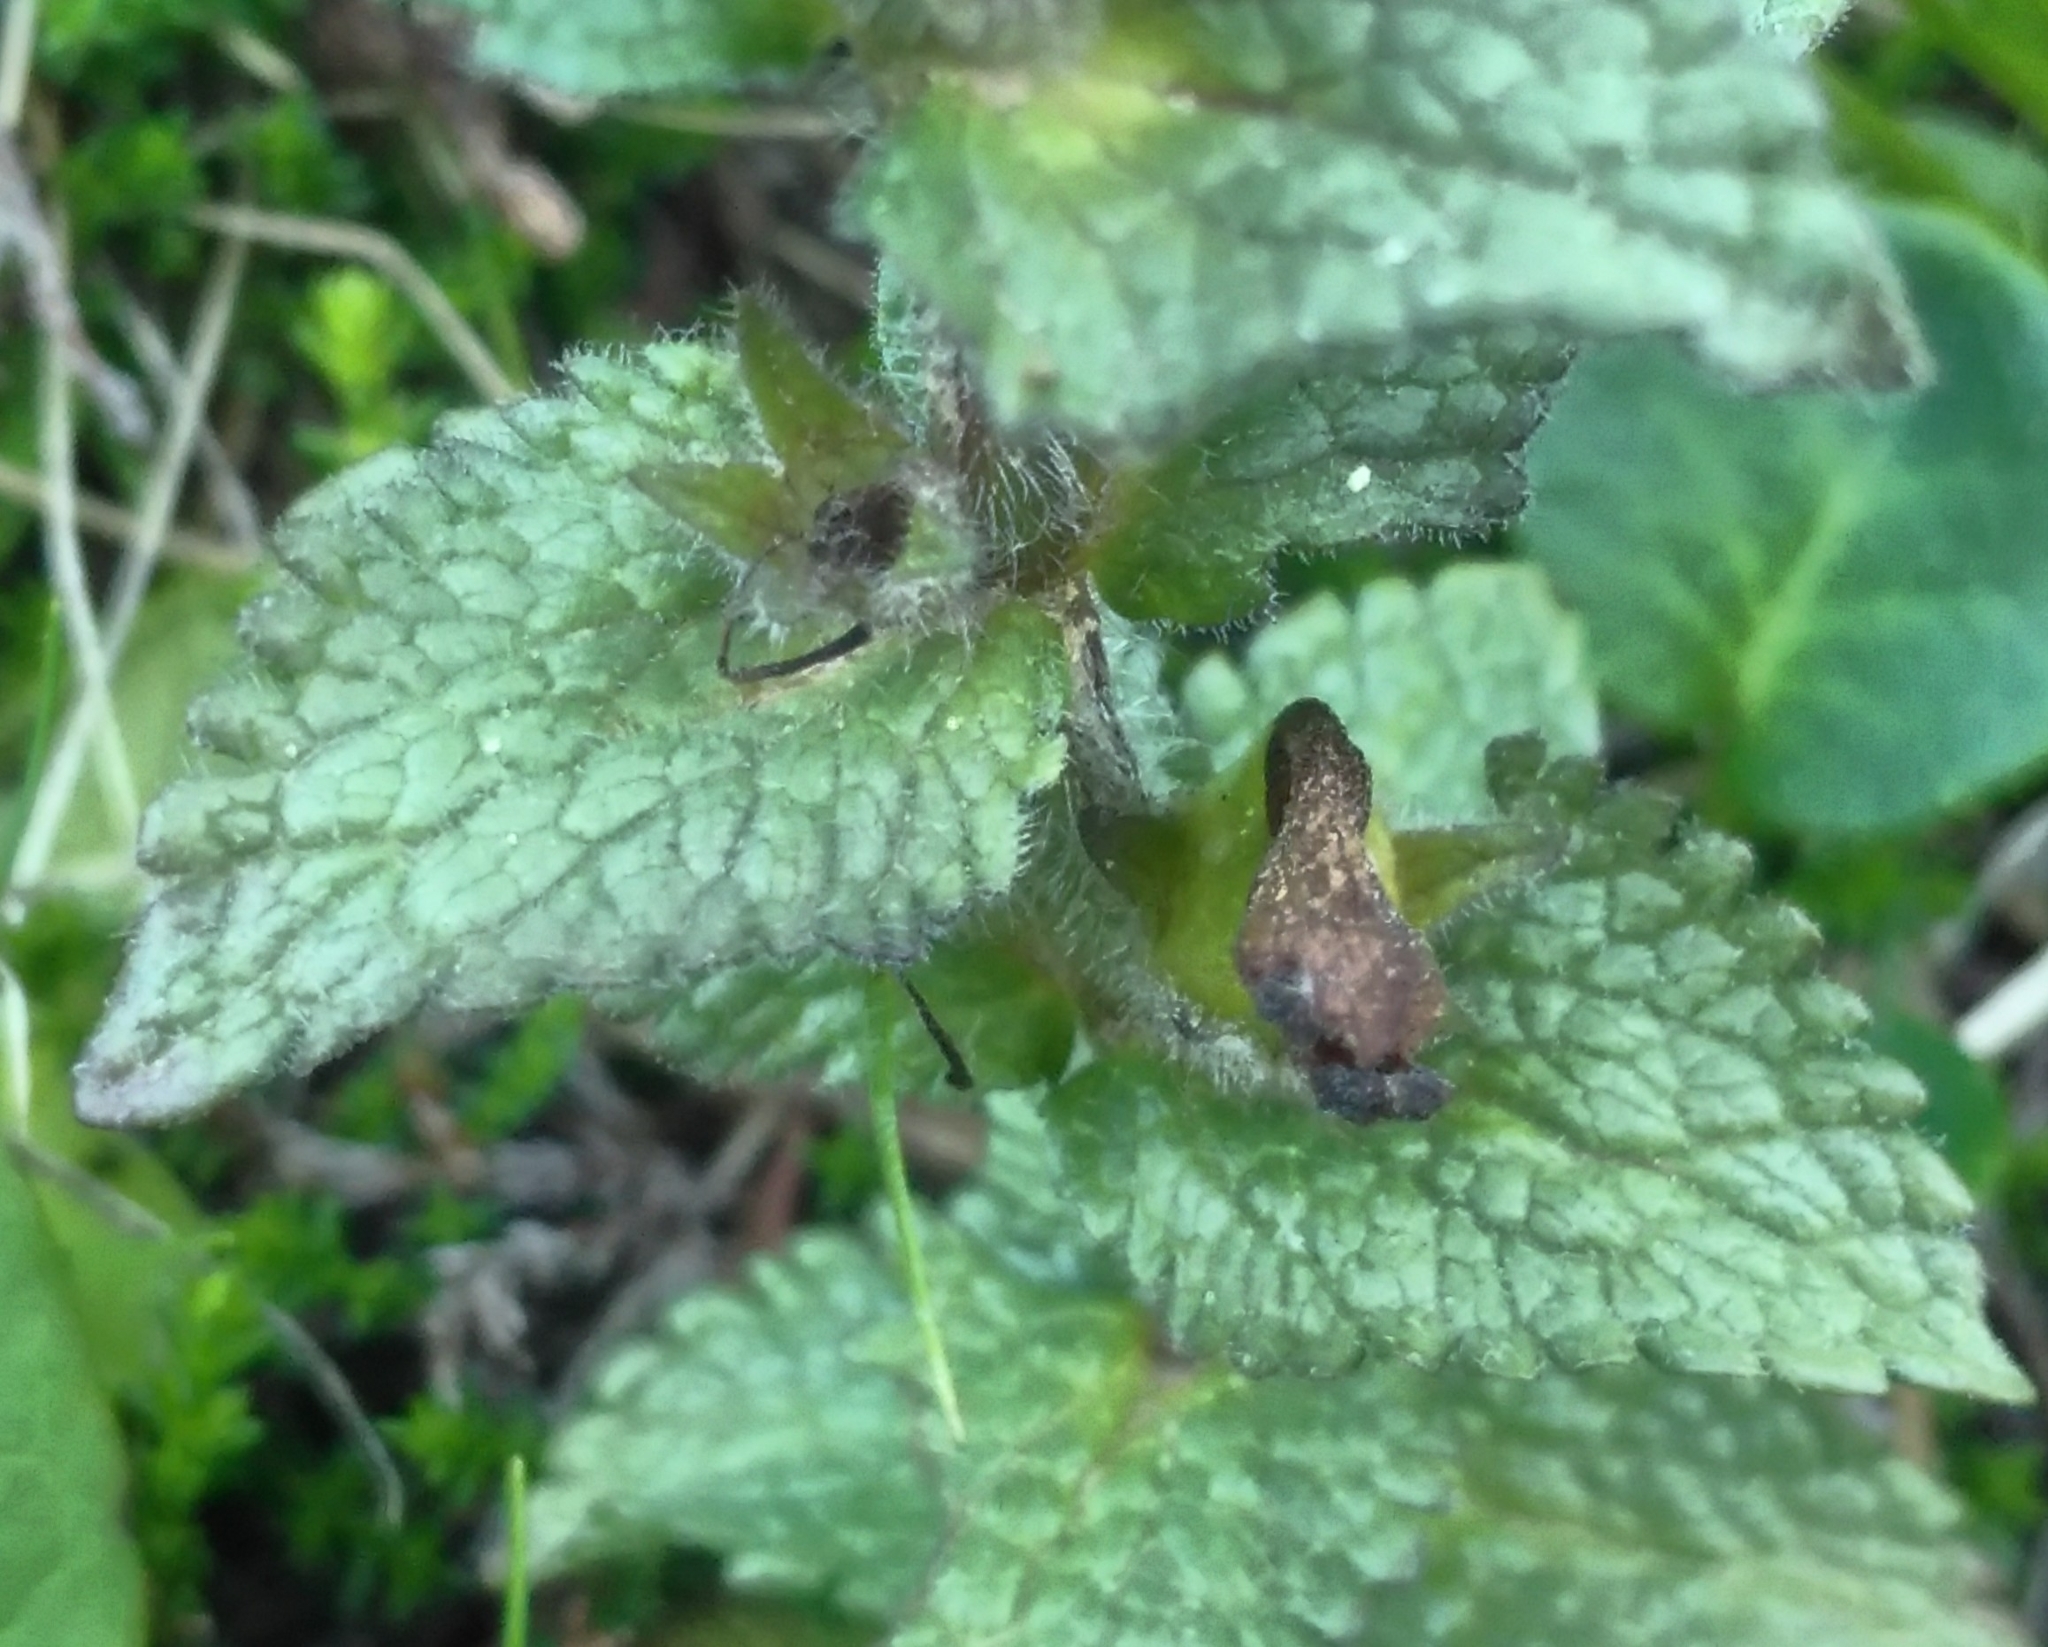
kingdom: Plantae
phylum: Tracheophyta
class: Magnoliopsida
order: Lamiales
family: Orobanchaceae
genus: Bartsia
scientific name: Bartsia alpina
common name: Alpine bartsia
